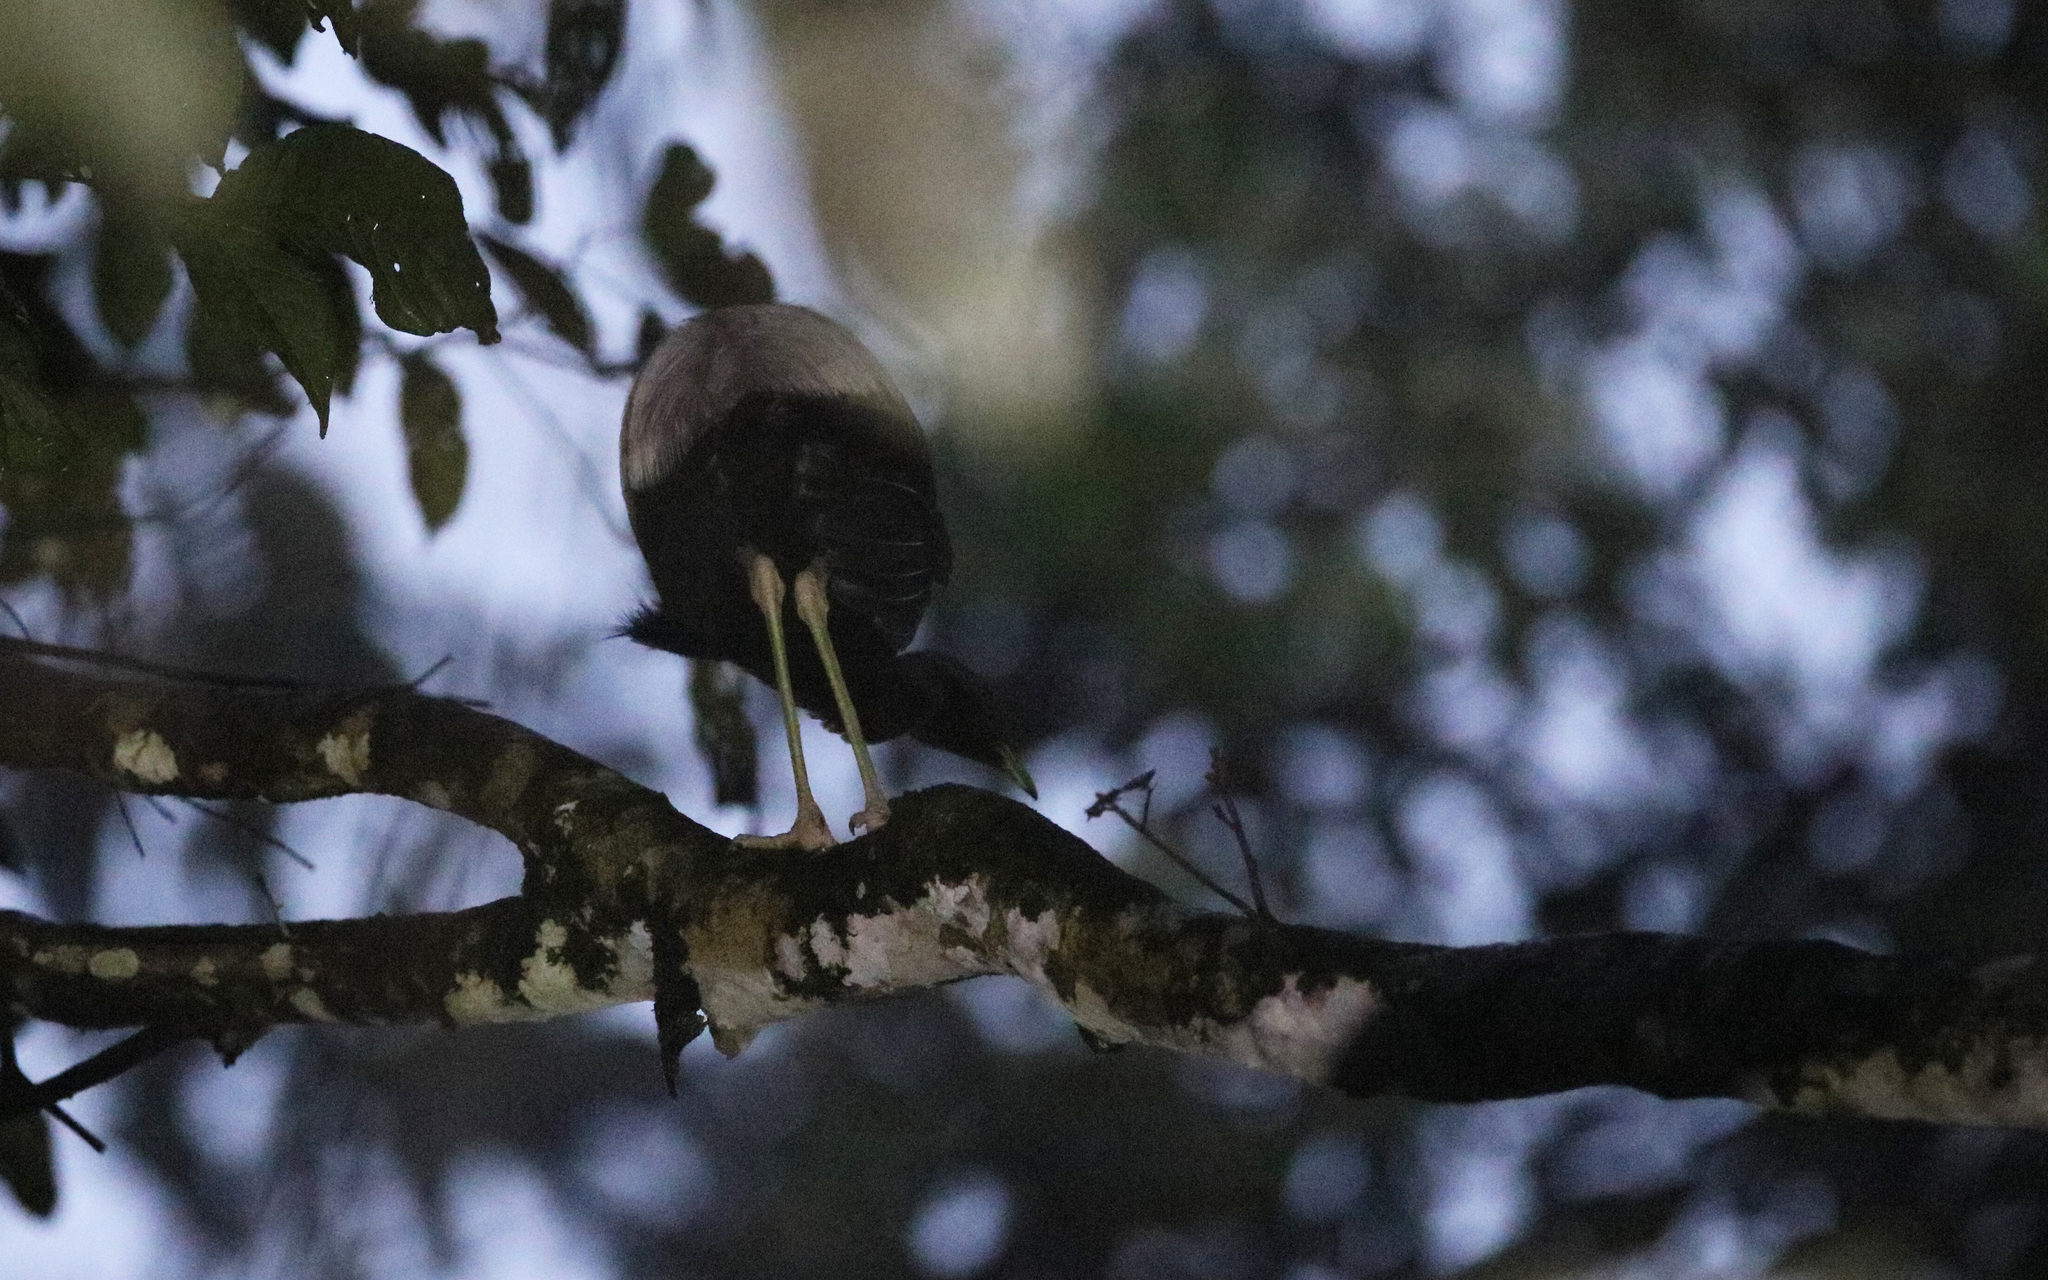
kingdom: Animalia
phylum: Chordata
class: Aves
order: Gruiformes
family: Psophiidae
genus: Psophia
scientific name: Psophia crepitans
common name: Grey-winged trumpeter
